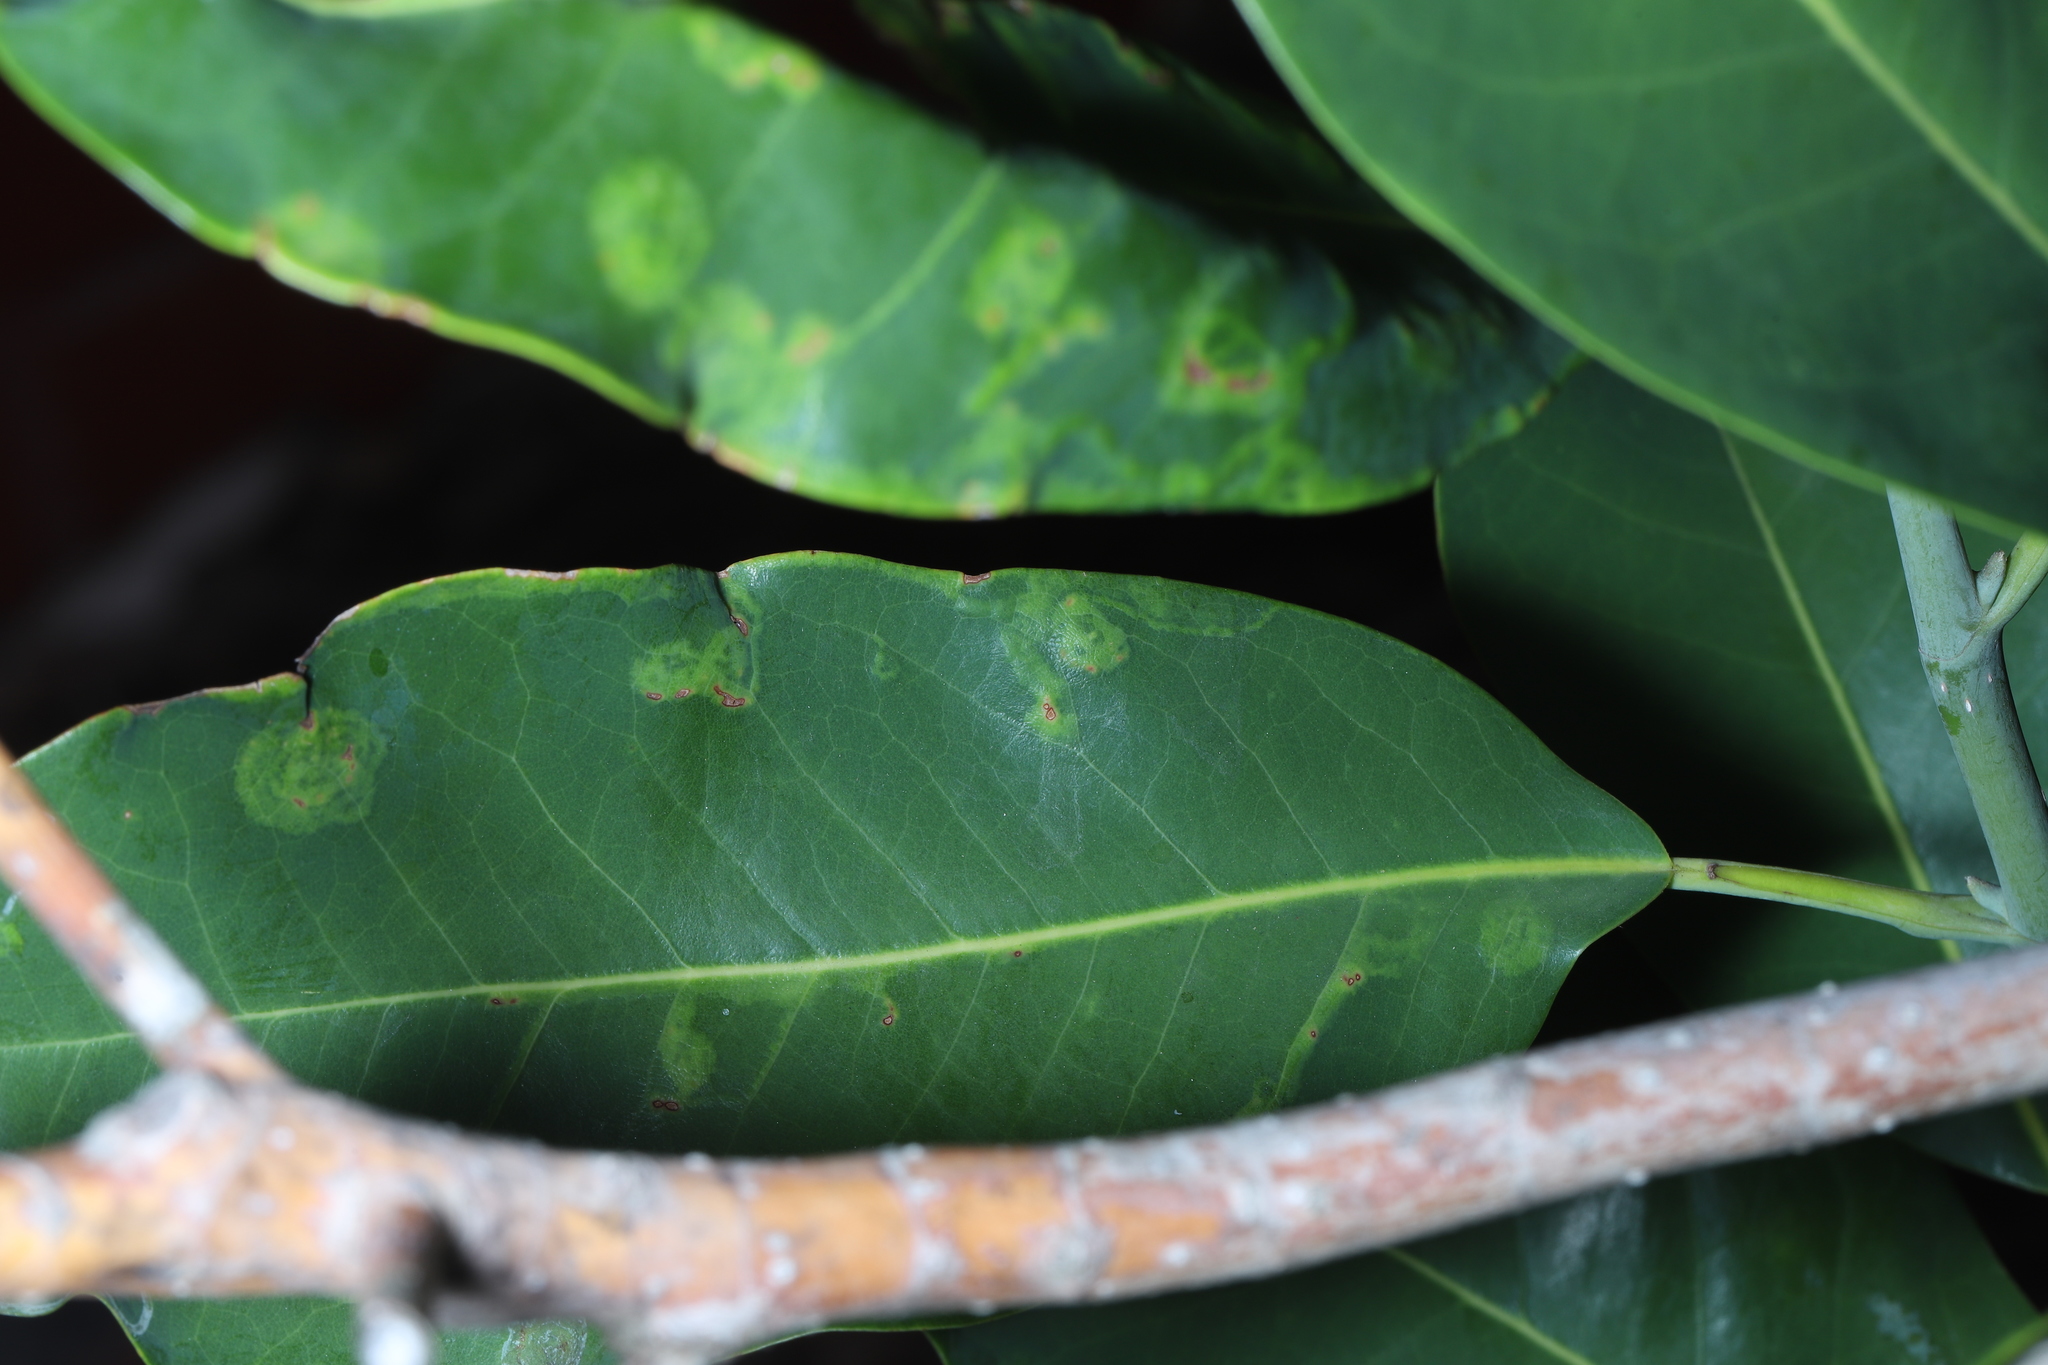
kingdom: Animalia
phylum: Arthropoda
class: Insecta
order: Lepidoptera
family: Gracillariidae
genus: Phyllocnistis
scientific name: Phyllocnistis liriodendronella
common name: Tulip tree leaf miner
